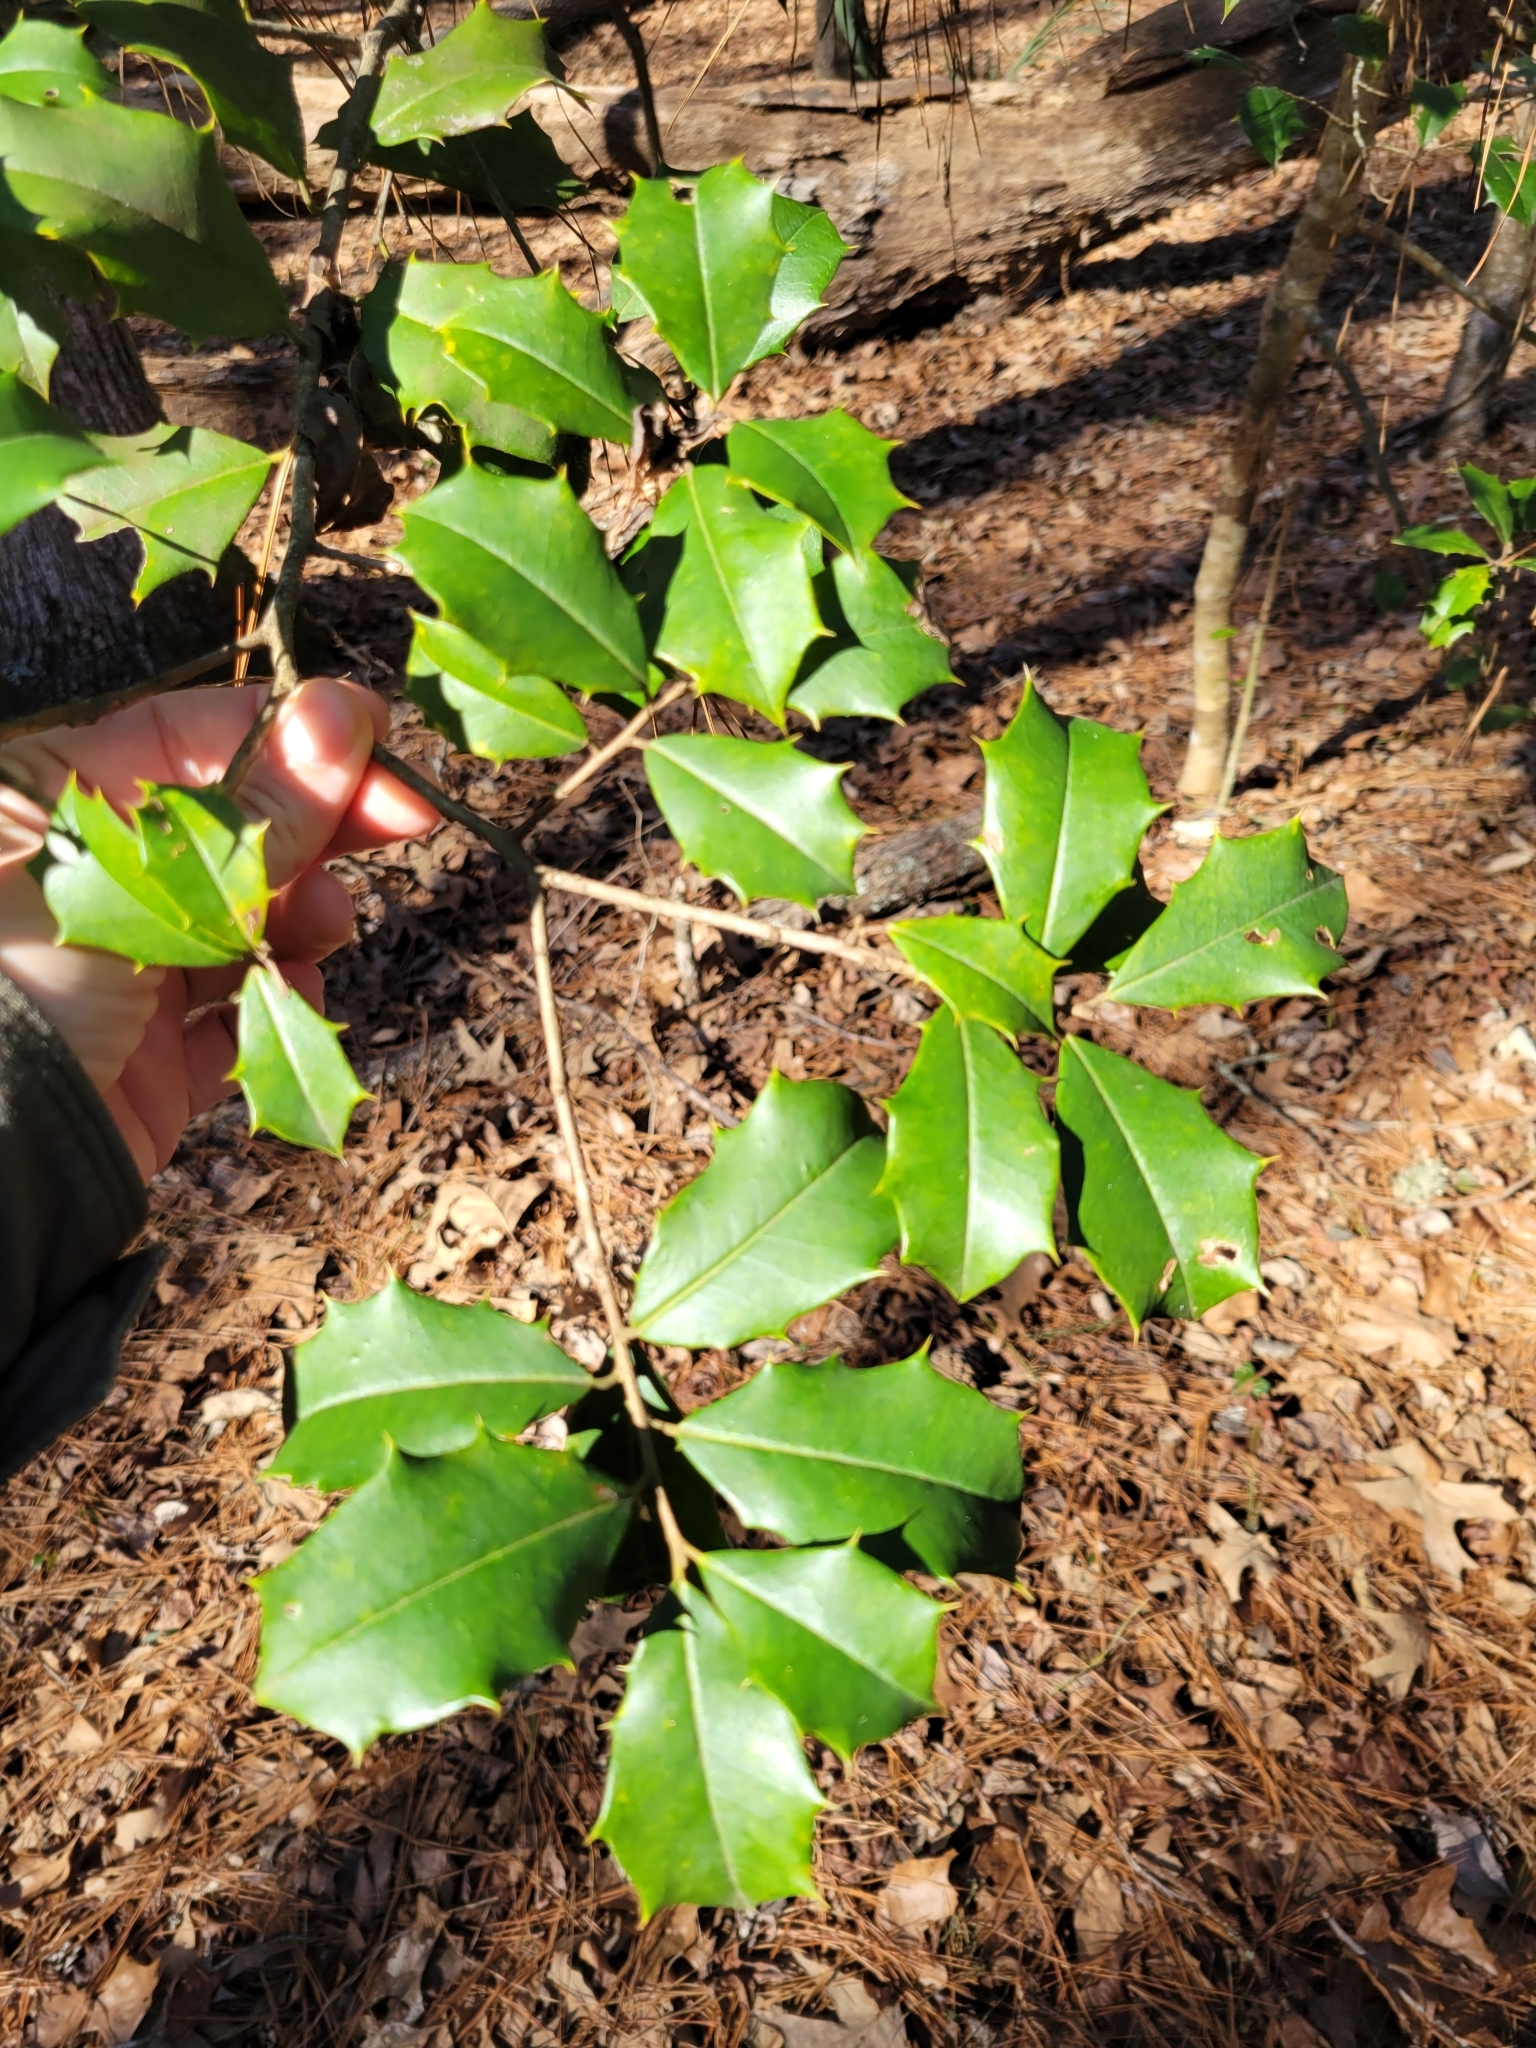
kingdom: Plantae
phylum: Tracheophyta
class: Magnoliopsida
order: Aquifoliales
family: Aquifoliaceae
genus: Ilex
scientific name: Ilex opaca
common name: American holly
